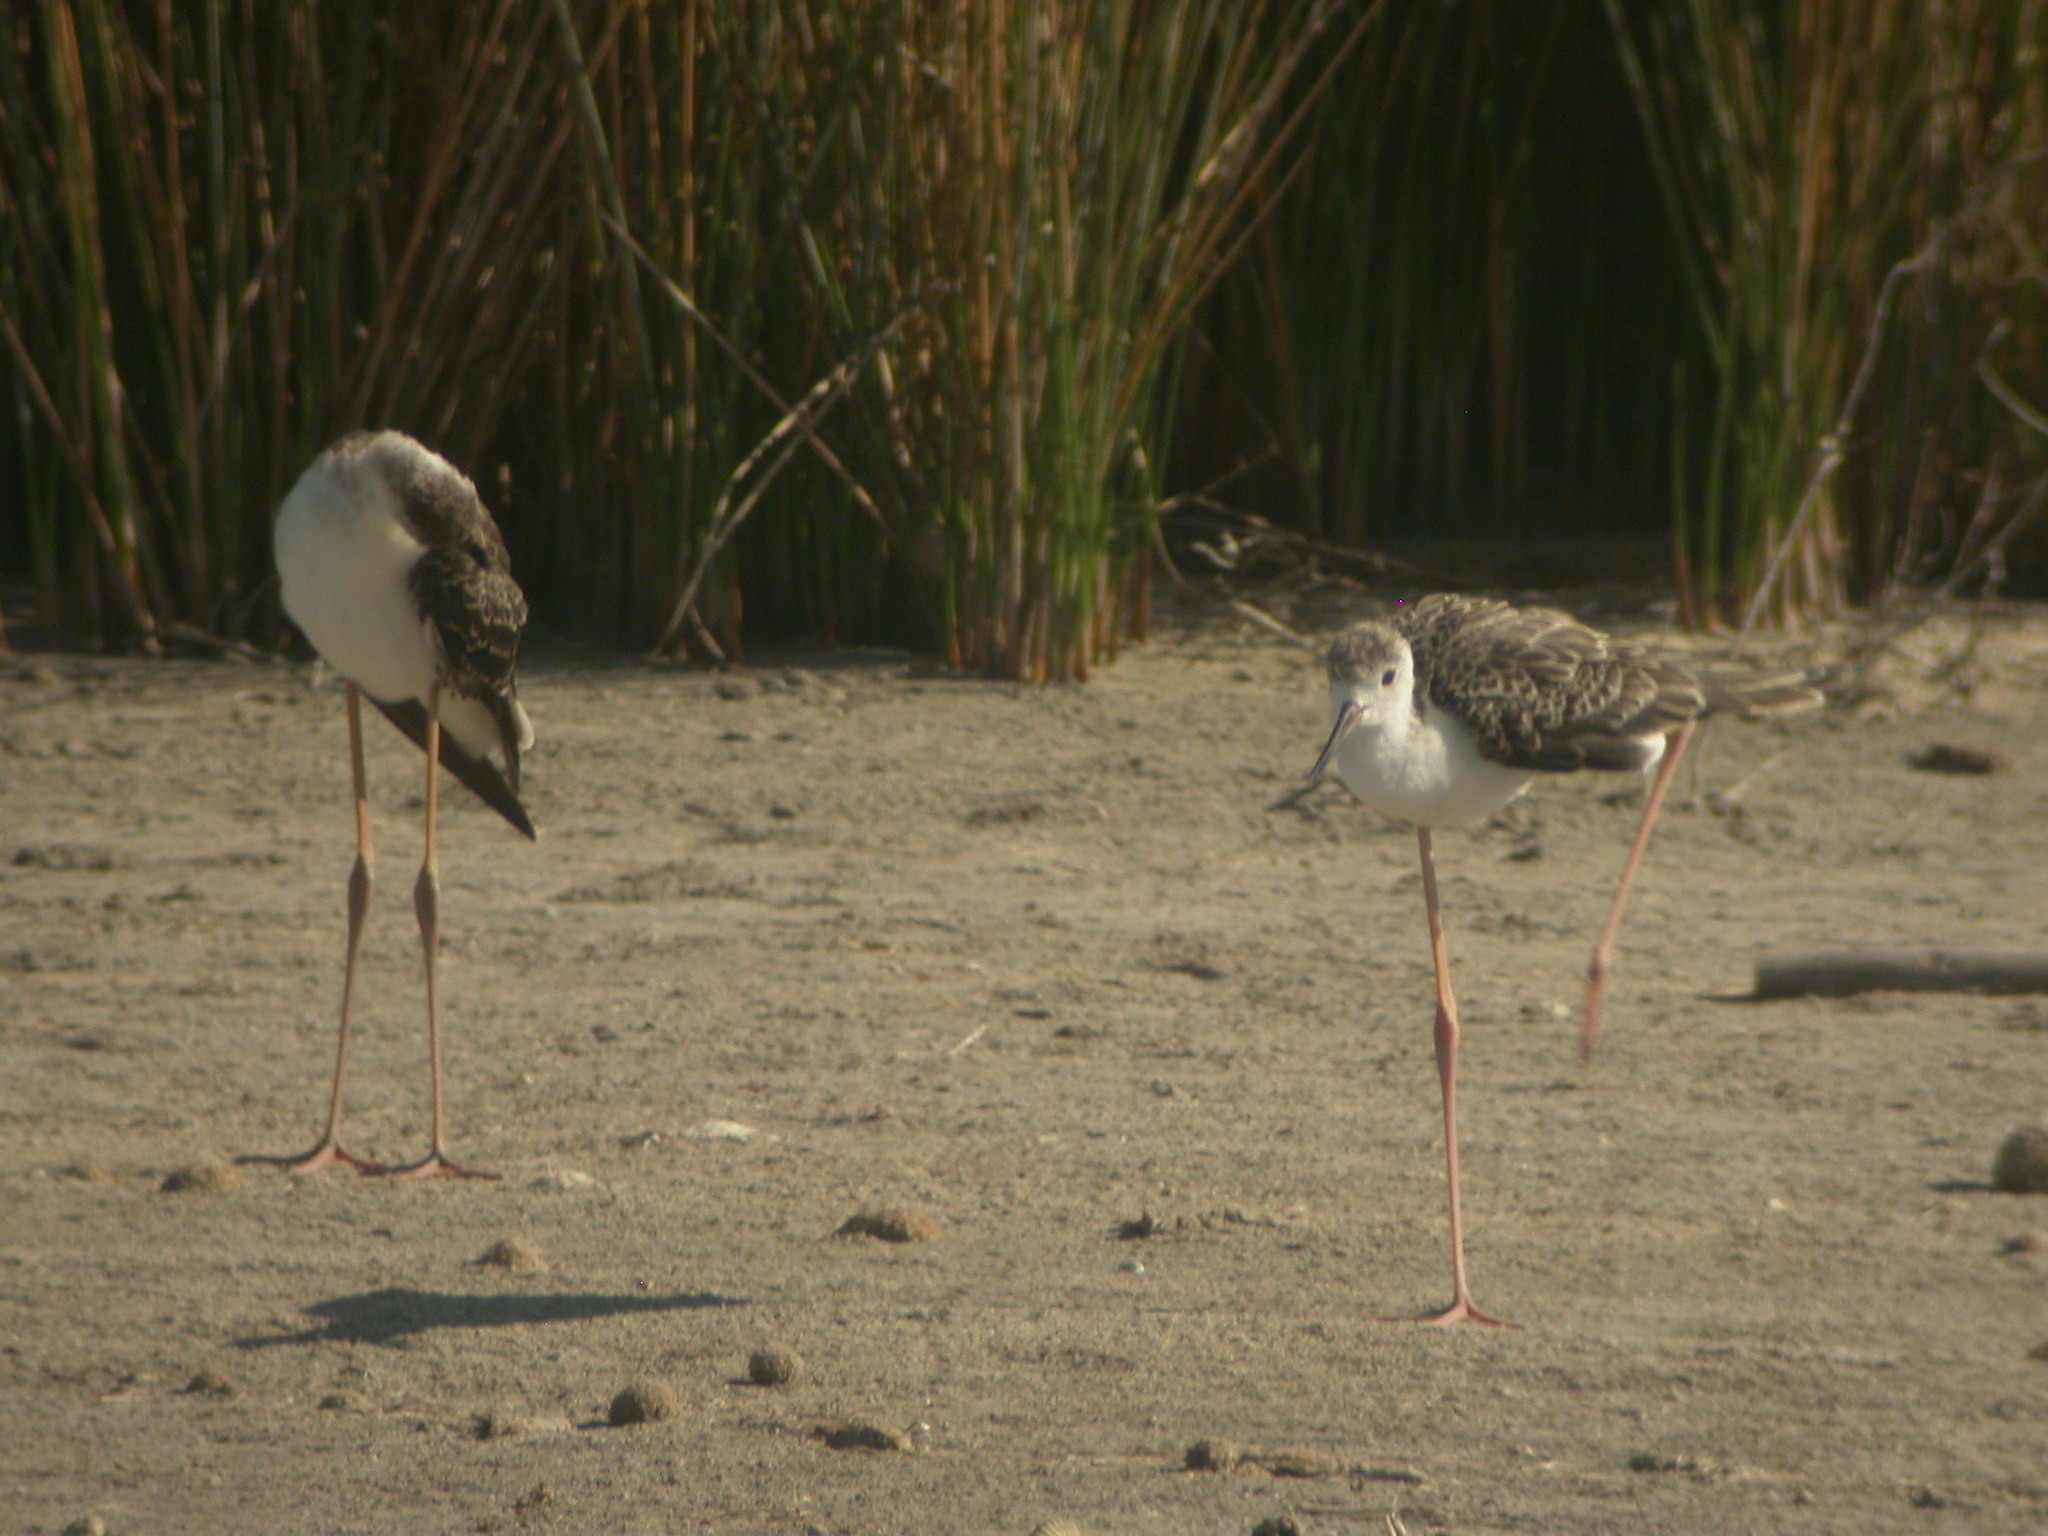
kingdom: Animalia
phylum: Chordata
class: Aves
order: Charadriiformes
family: Recurvirostridae
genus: Himantopus
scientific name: Himantopus himantopus
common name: Black-winged stilt
